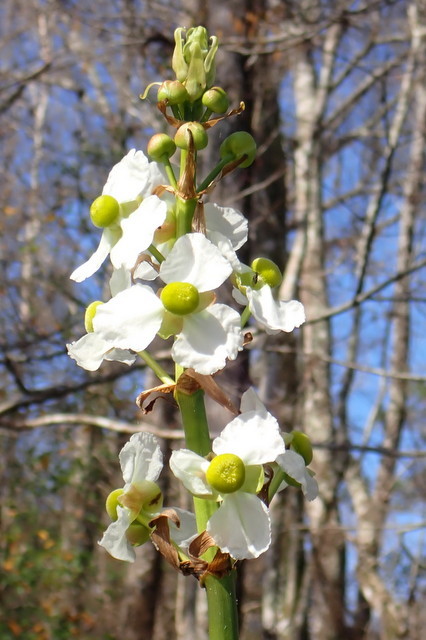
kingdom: Plantae
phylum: Tracheophyta
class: Liliopsida
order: Alismatales
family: Alismataceae
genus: Sagittaria
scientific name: Sagittaria lancifolia
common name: Lance-leaf arrowhead
